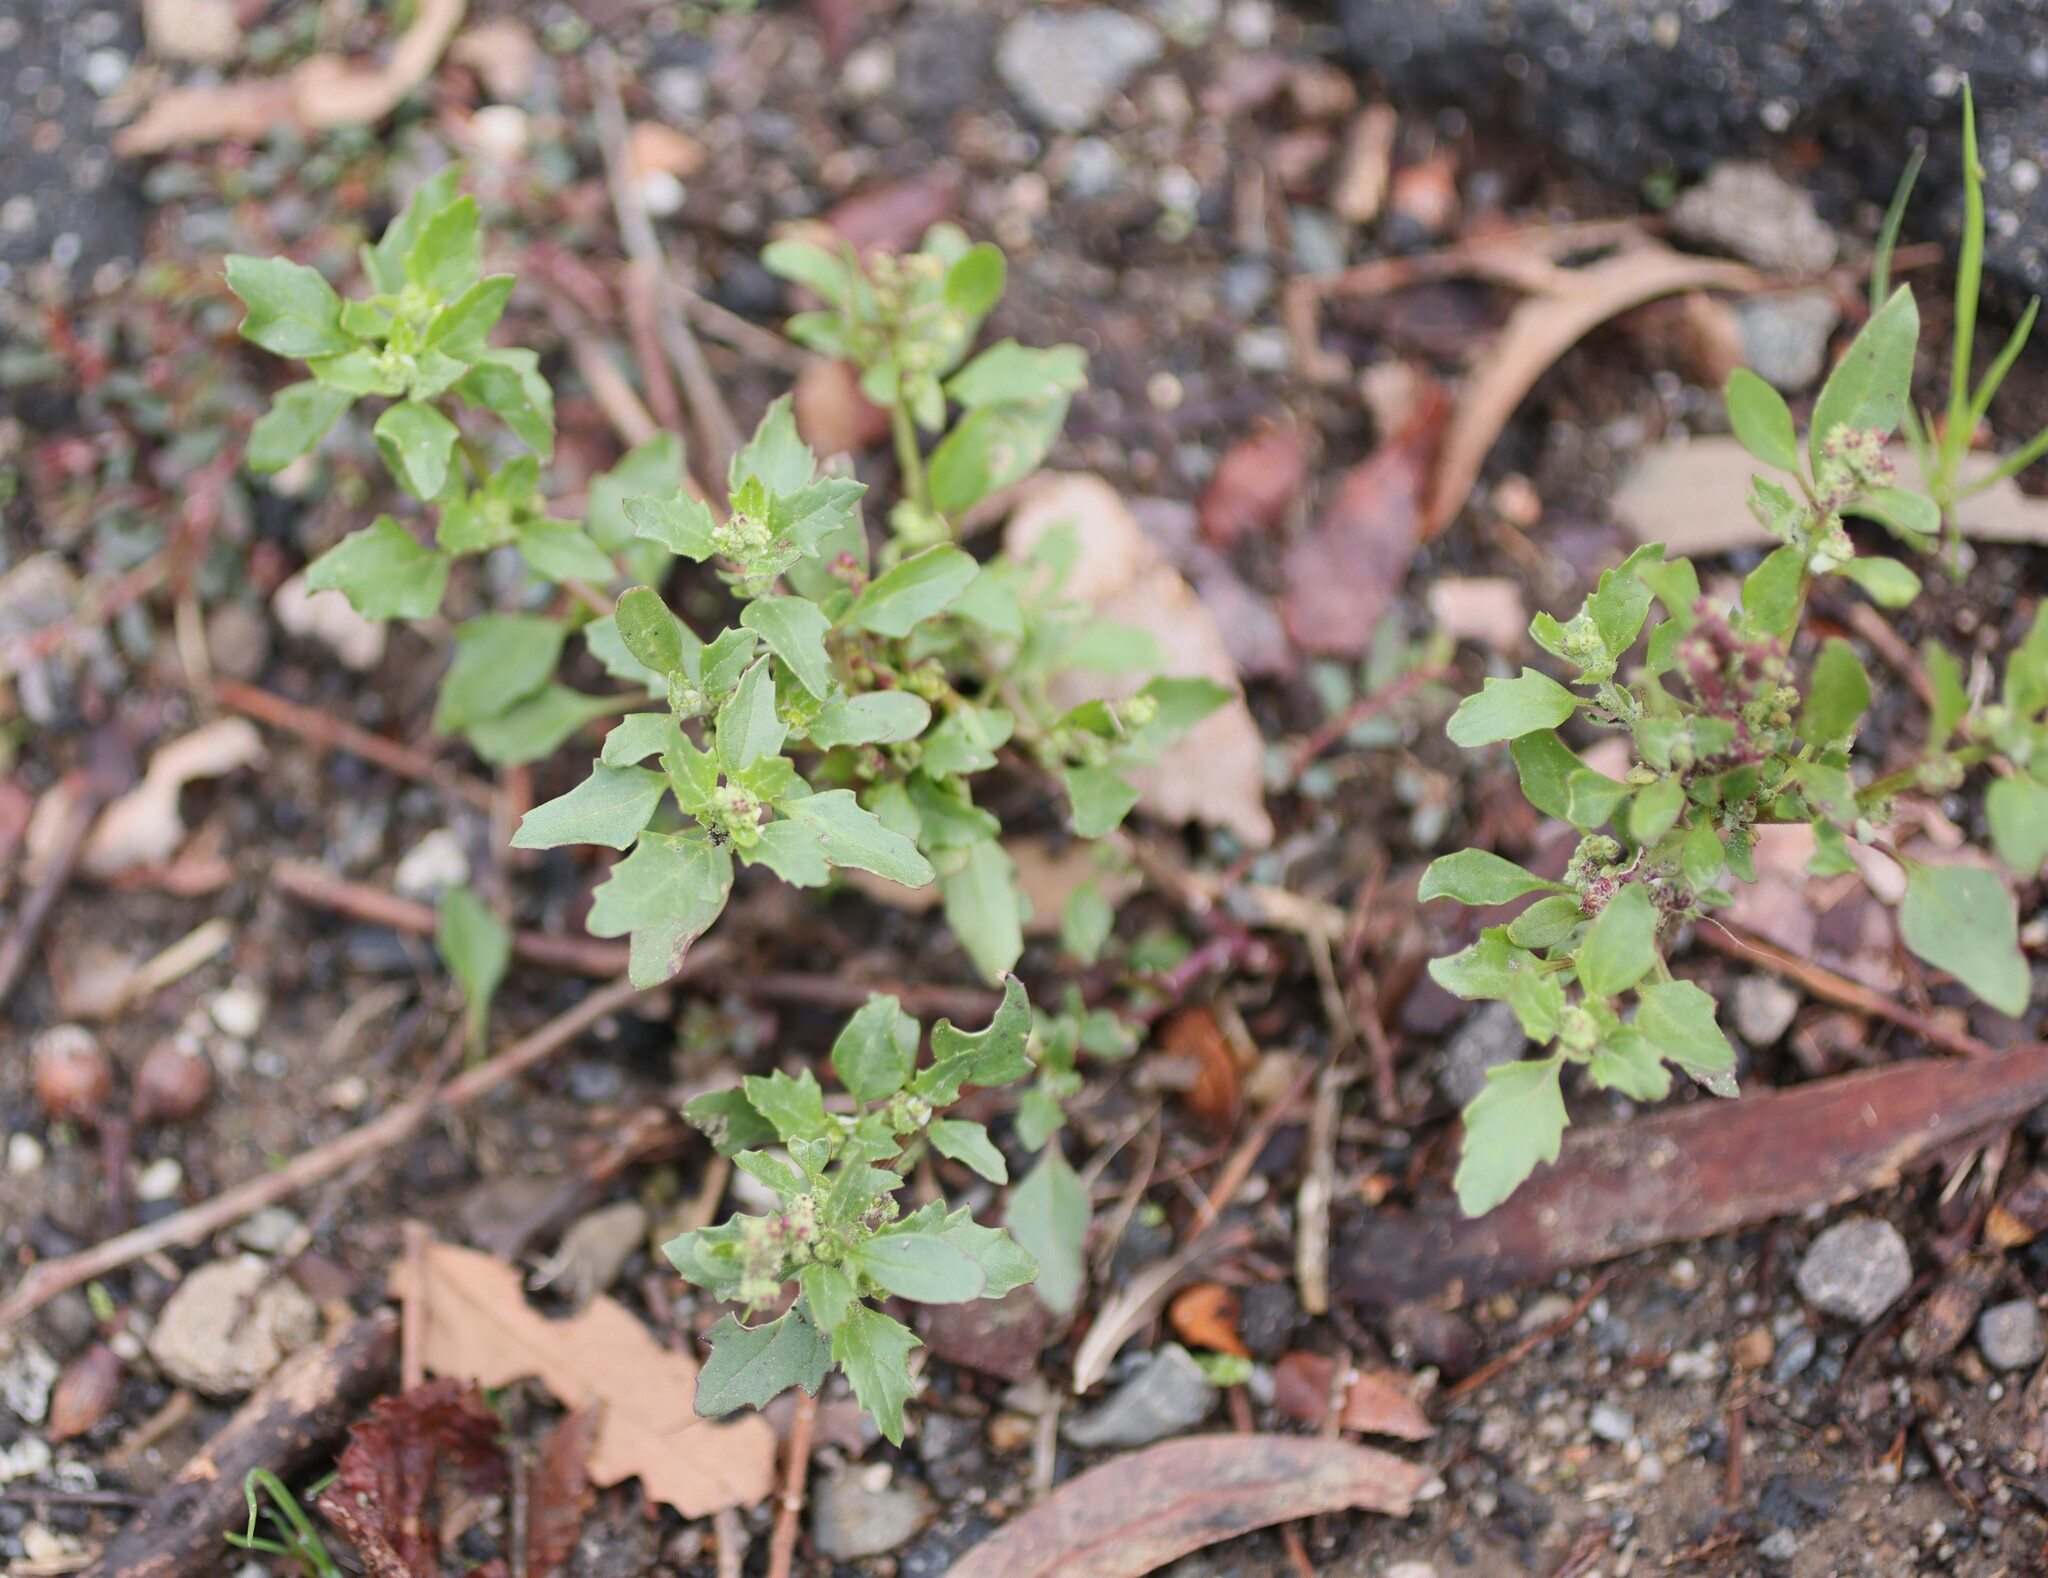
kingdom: Plantae
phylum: Tracheophyta
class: Magnoliopsida
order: Caryophyllales
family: Amaranthaceae
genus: Chenopodiastrum
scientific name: Chenopodiastrum murale
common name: Sowbane
